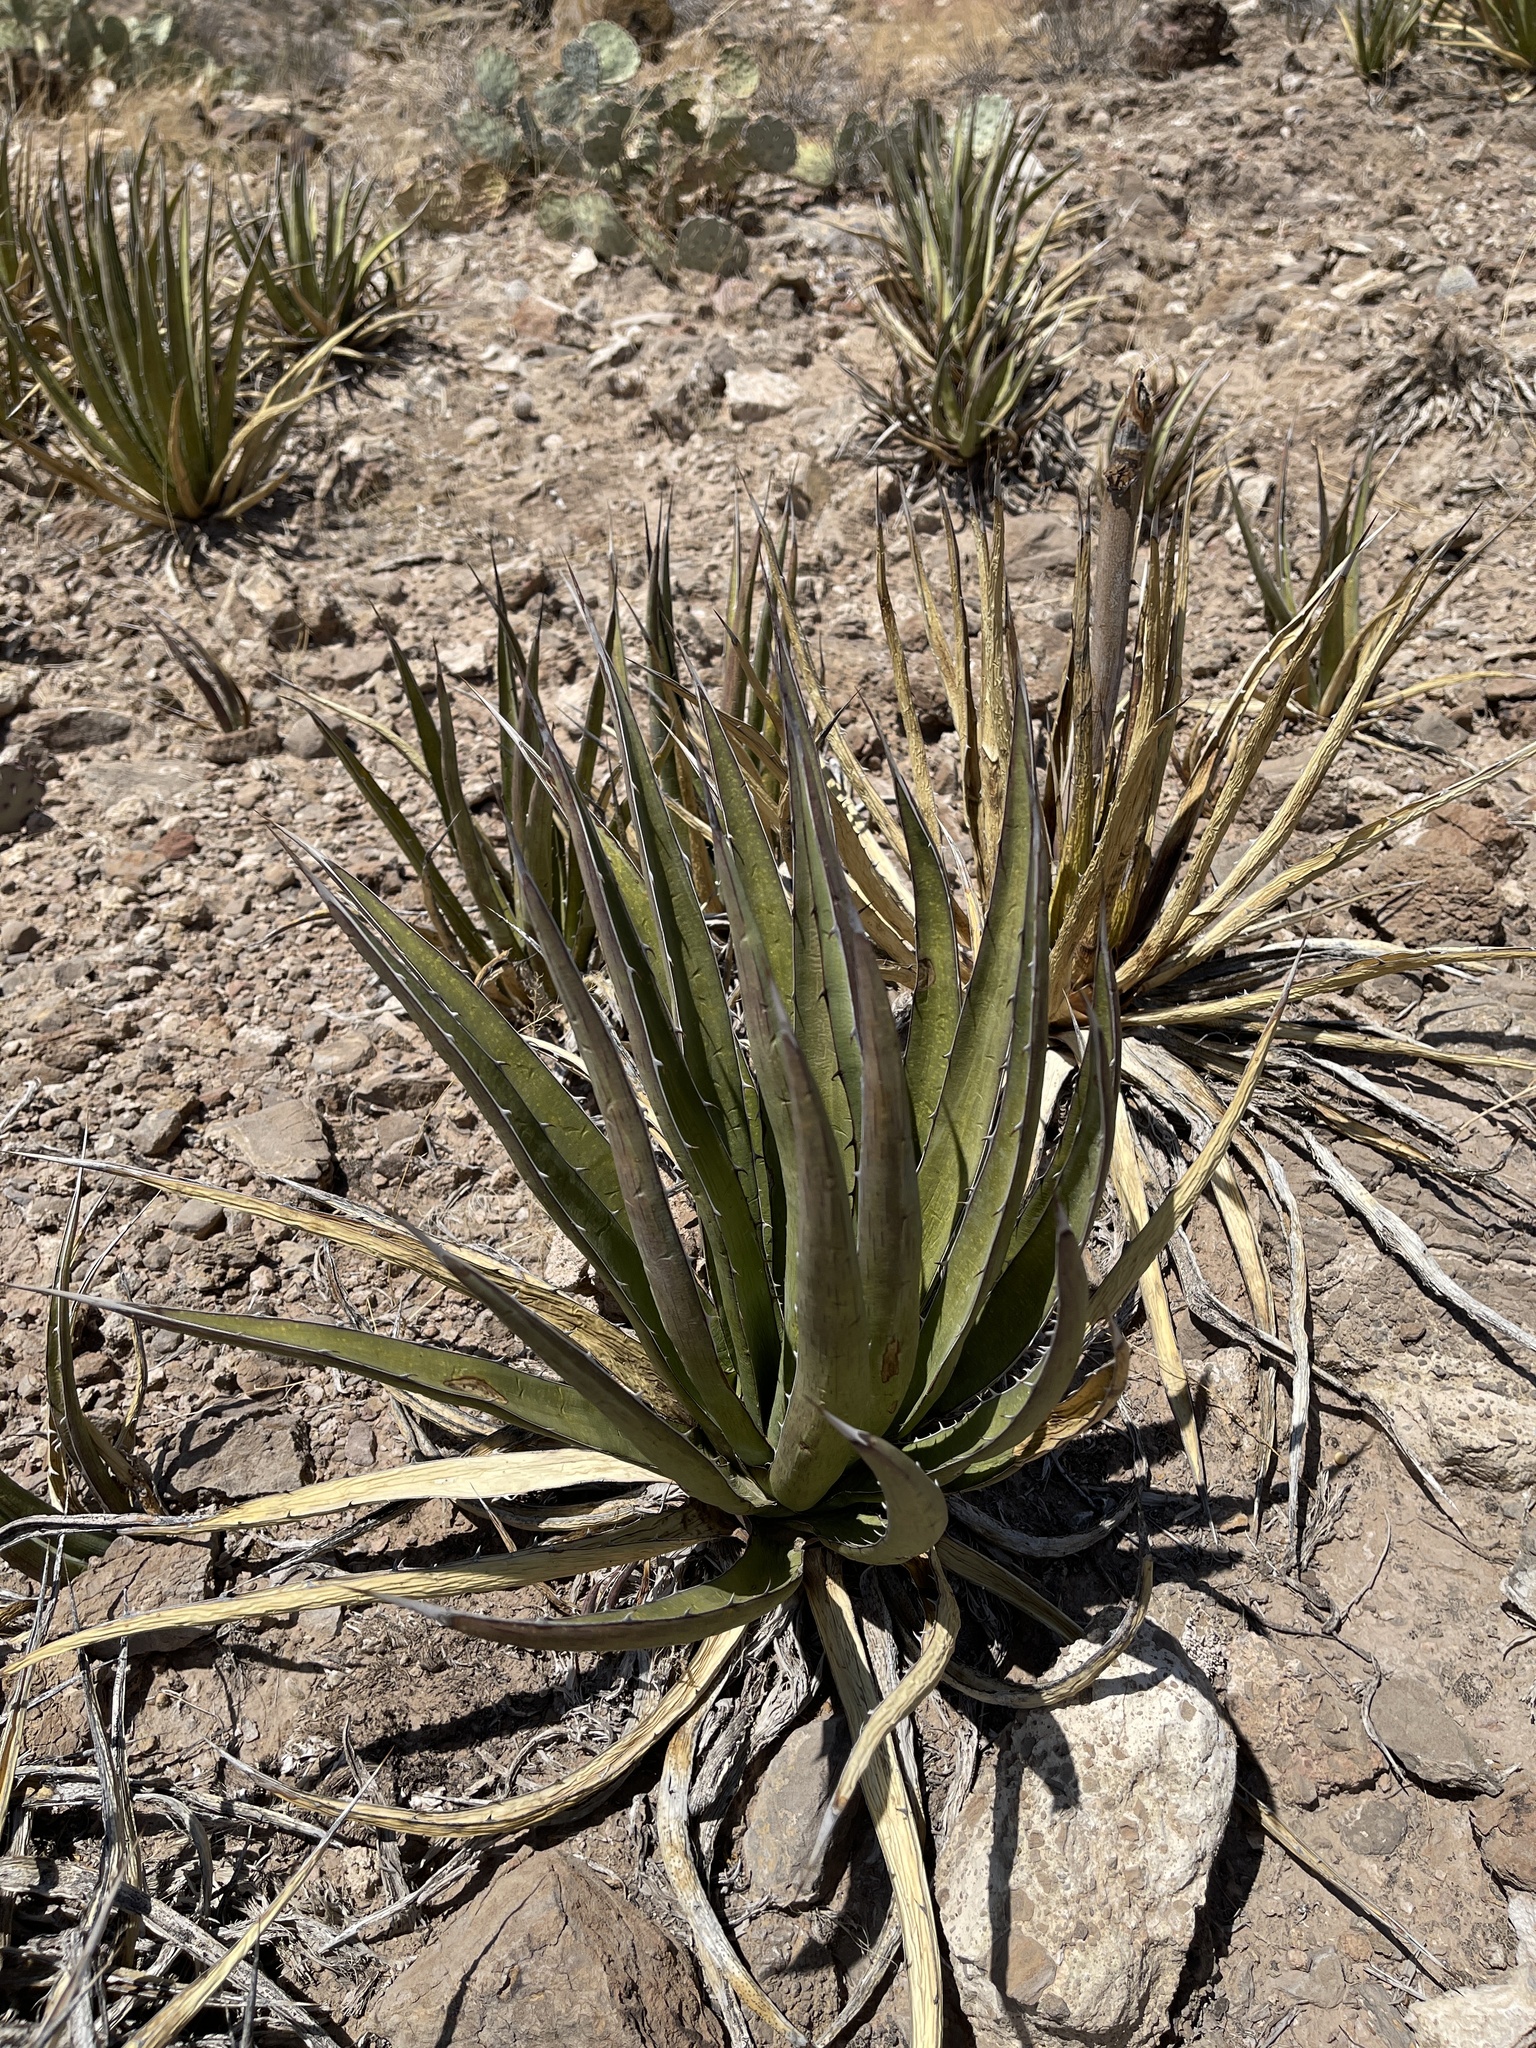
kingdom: Plantae
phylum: Tracheophyta
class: Liliopsida
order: Asparagales
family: Asparagaceae
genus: Agave
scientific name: Agave lechuguilla
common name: Lecheguilla agave
